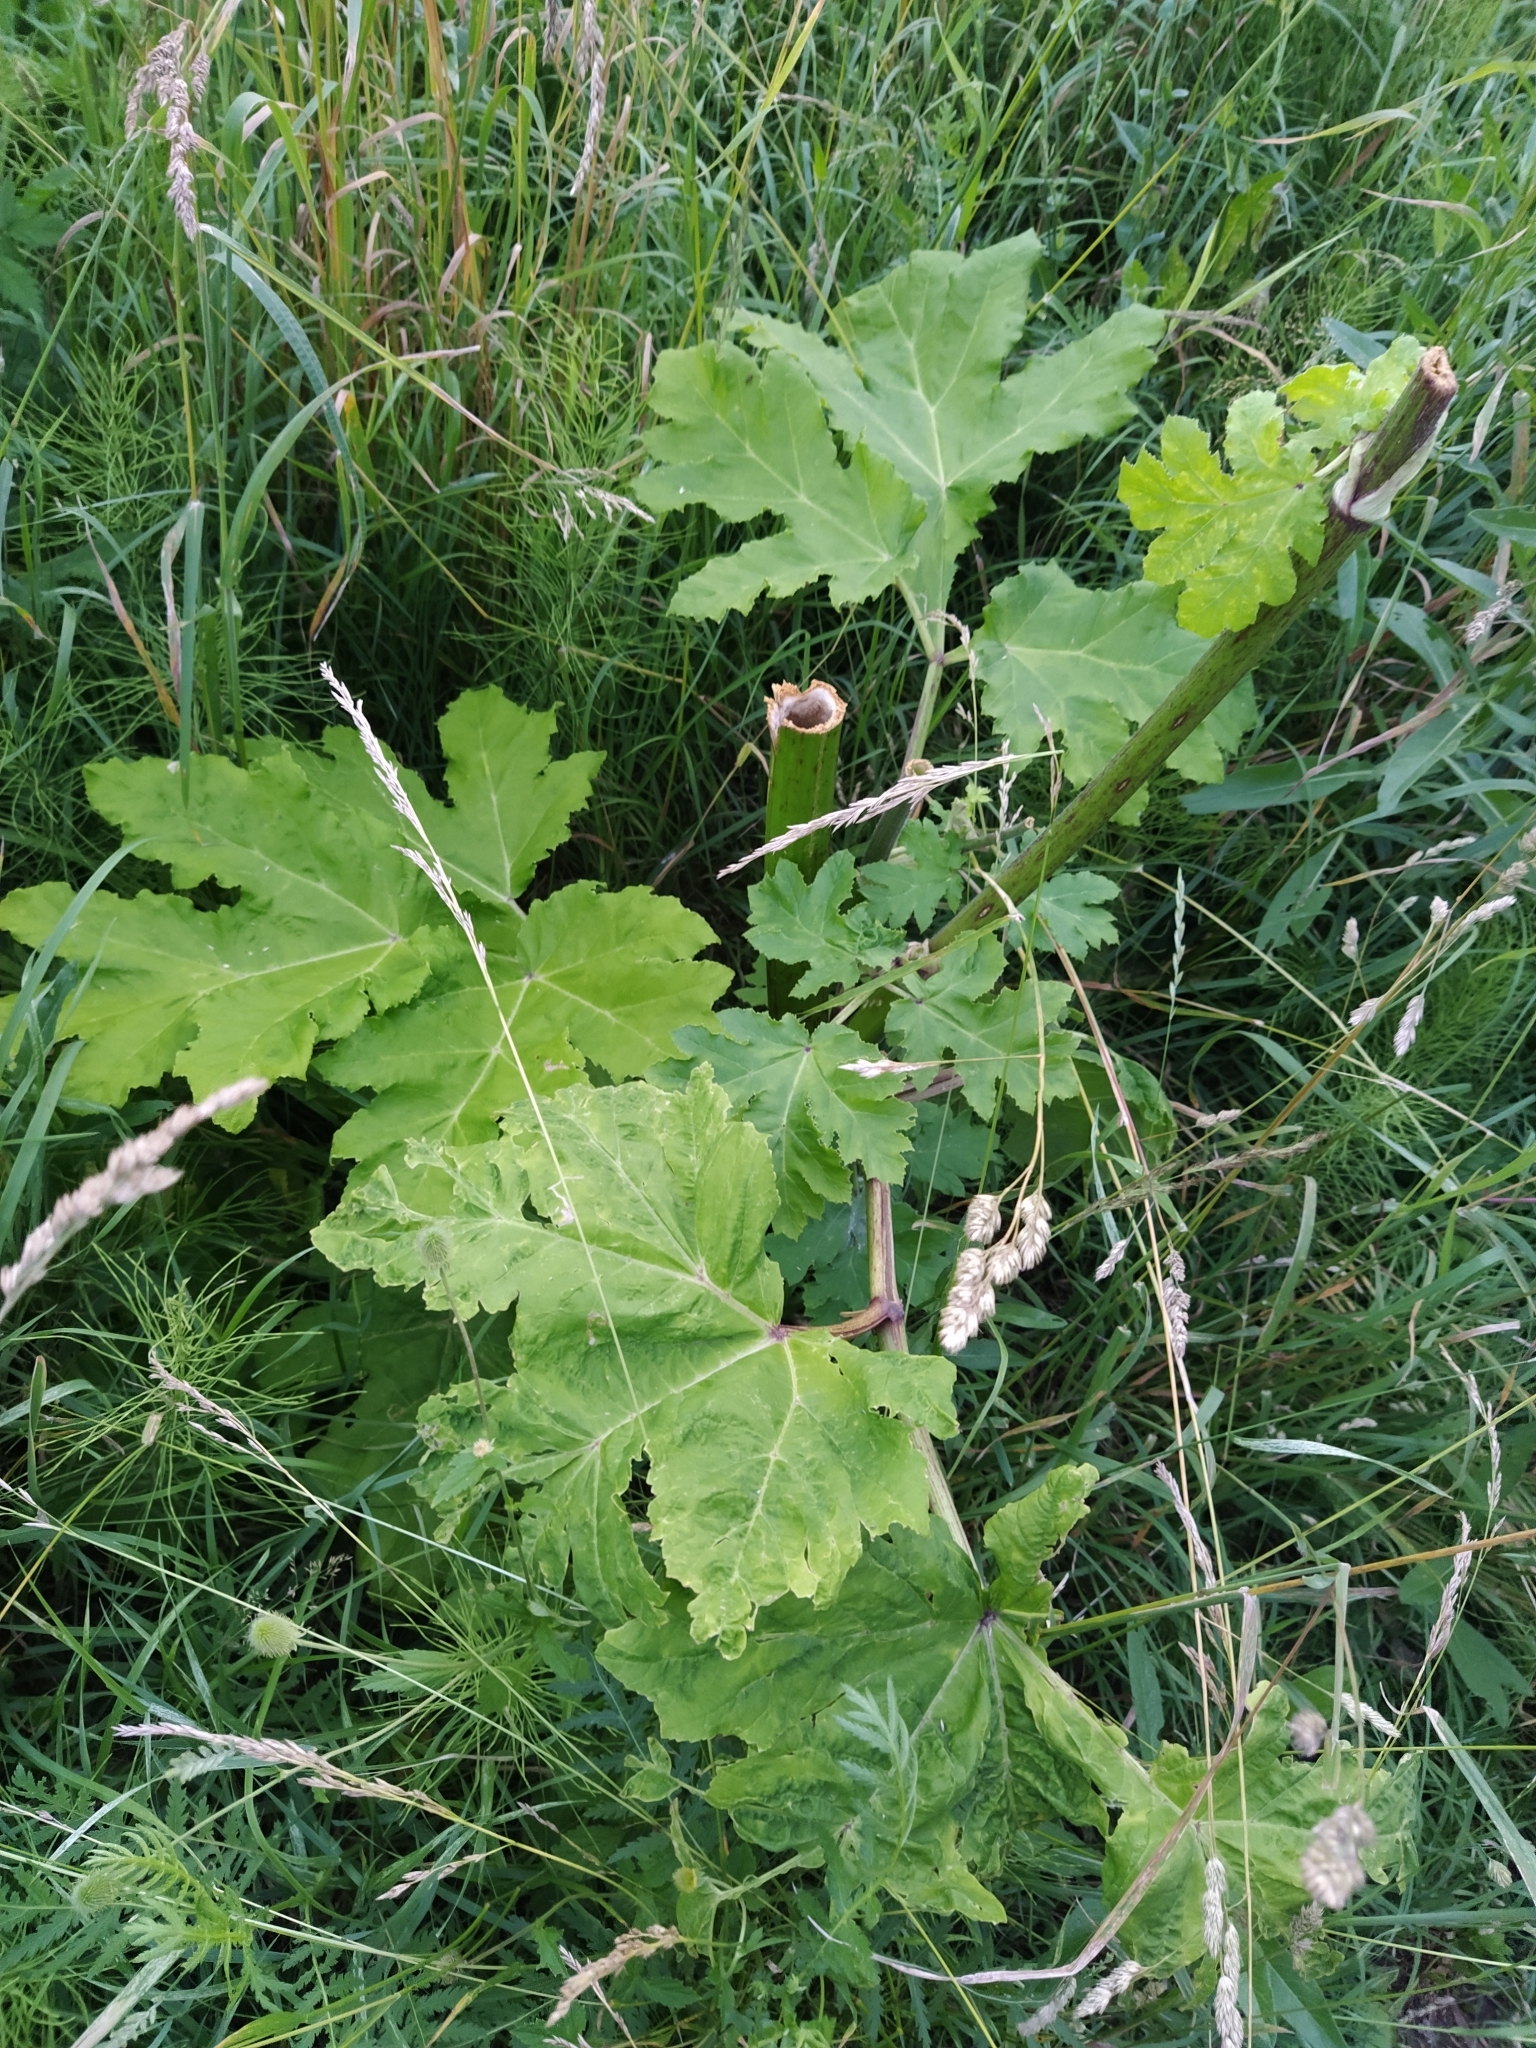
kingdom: Plantae
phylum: Tracheophyta
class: Magnoliopsida
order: Apiales
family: Apiaceae
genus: Heracleum
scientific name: Heracleum sosnowskyi
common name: Sosnowsky's hogweed
